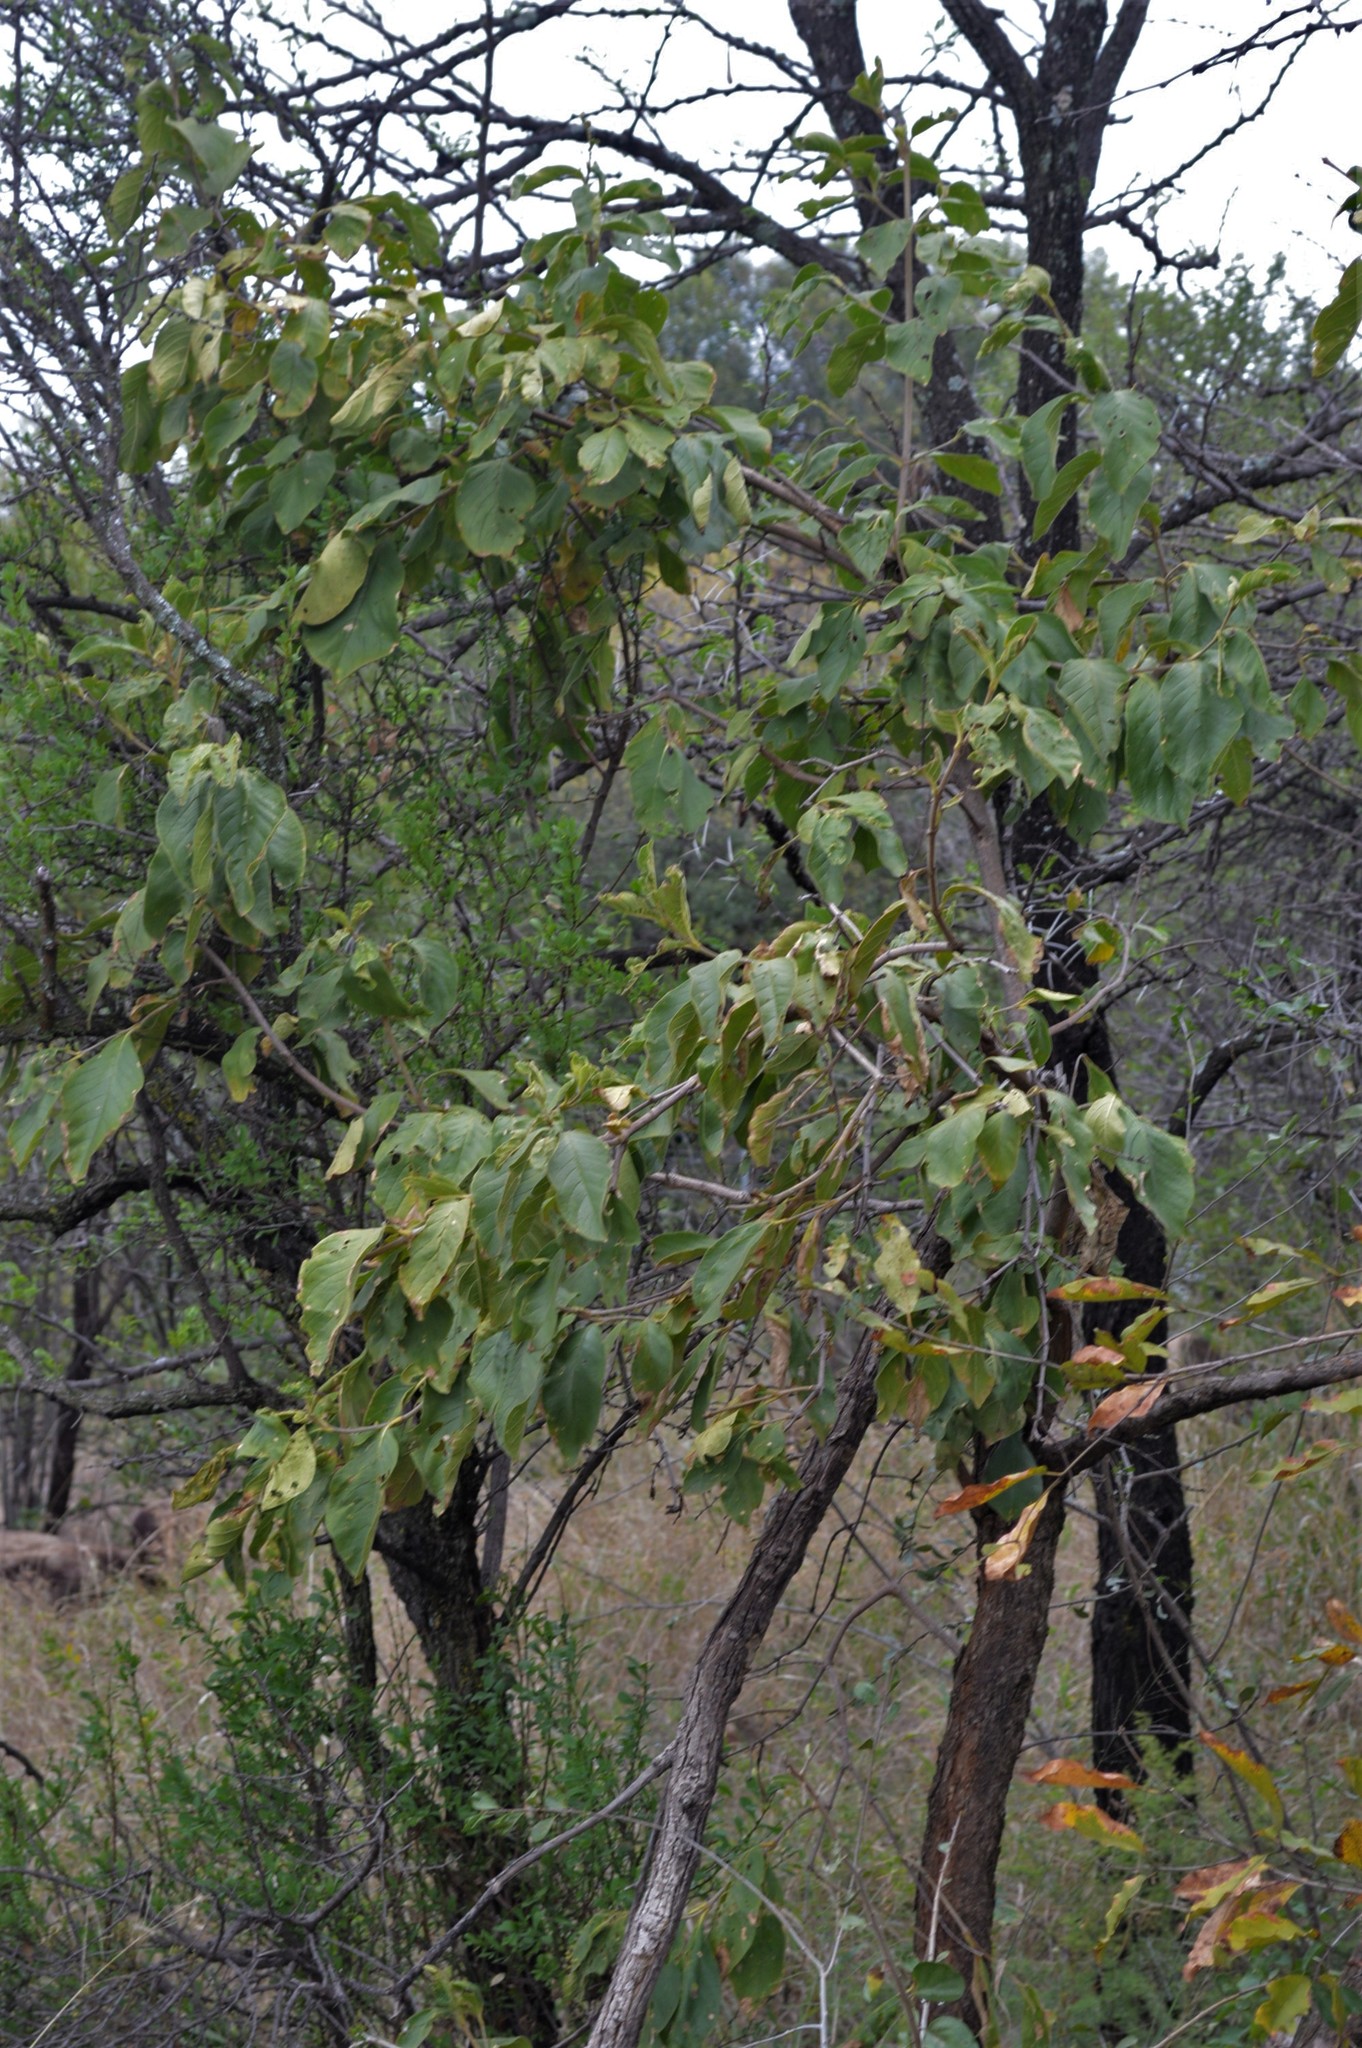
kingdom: Plantae
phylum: Tracheophyta
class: Magnoliopsida
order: Gentianales
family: Rubiaceae
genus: Vangueria
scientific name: Vangueria infausta
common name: Medlar
